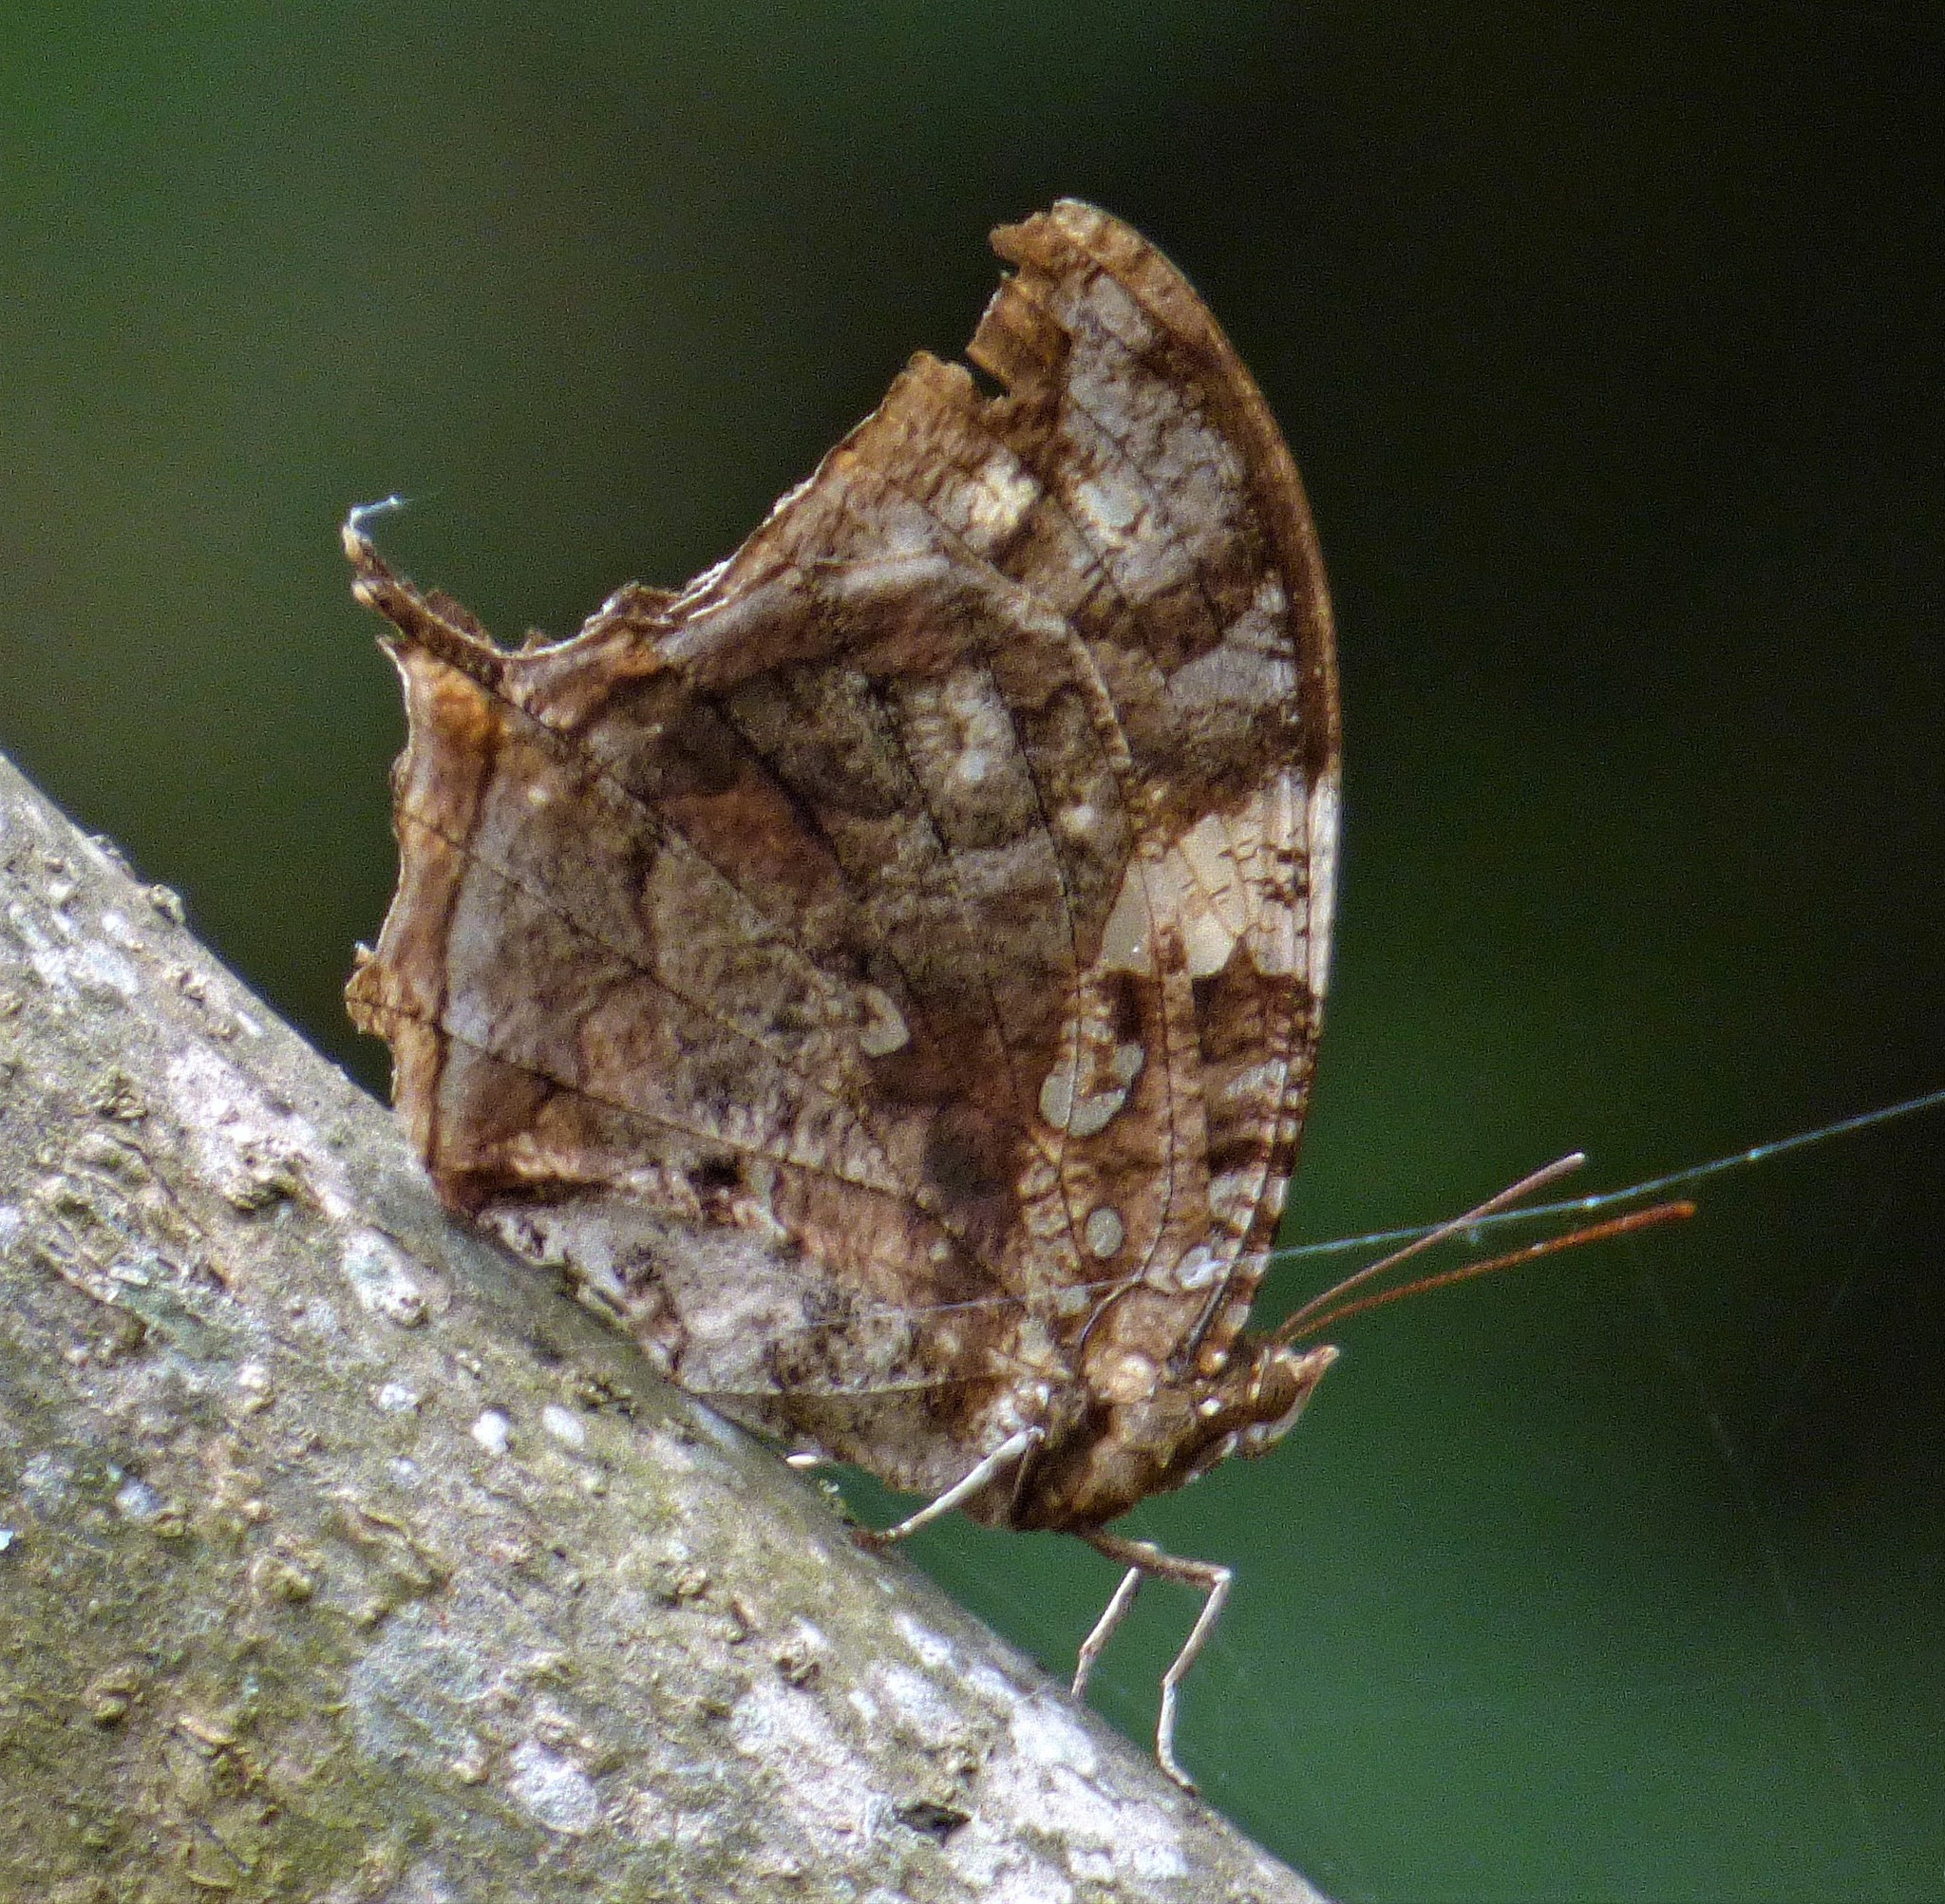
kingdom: Animalia
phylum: Arthropoda
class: Insecta
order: Lepidoptera
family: Nymphalidae
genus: Hypna
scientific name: Hypna clytemnestra
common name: Silver-studded leafwing
